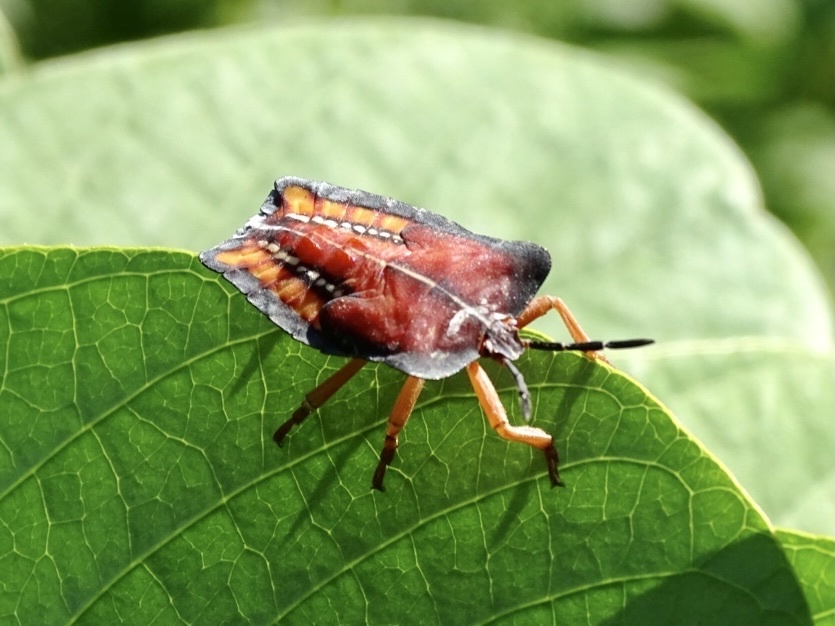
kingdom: Animalia
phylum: Arthropoda
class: Insecta
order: Hemiptera
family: Tessaratomidae
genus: Tessaratoma
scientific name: Tessaratoma papillosa
